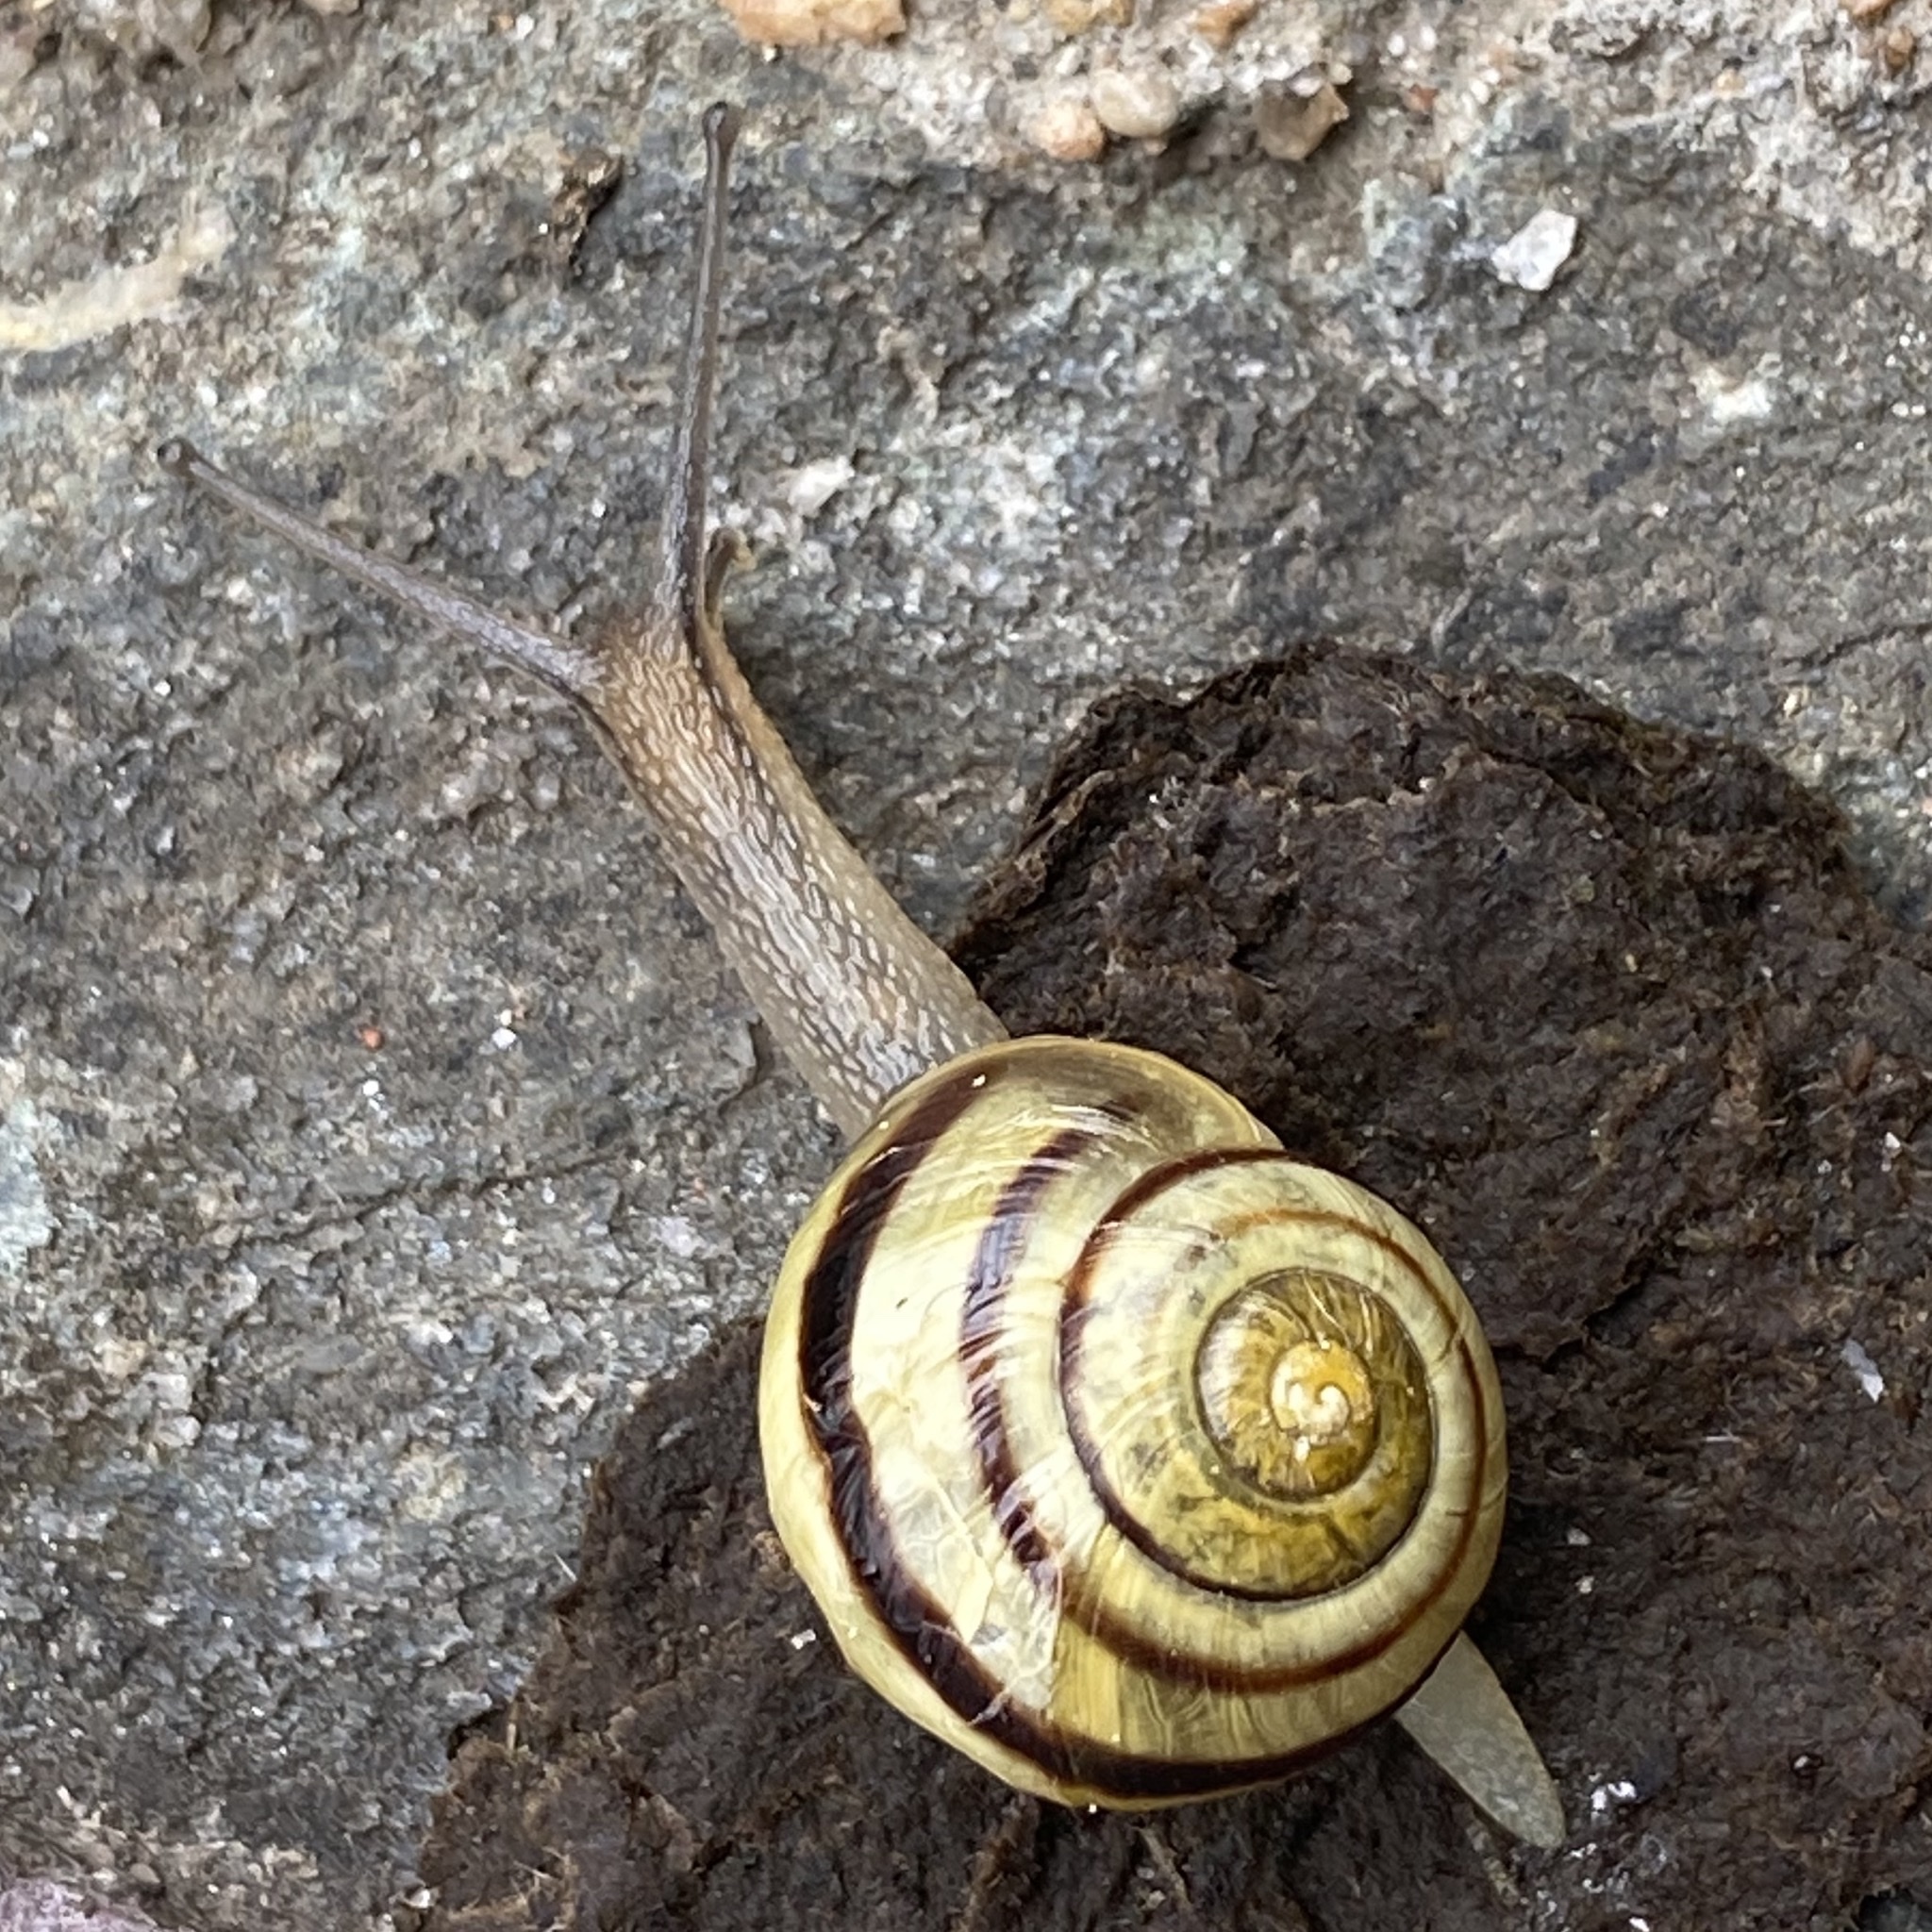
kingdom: Animalia
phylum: Mollusca
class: Gastropoda
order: Stylommatophora
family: Helicidae
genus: Cepaea
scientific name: Cepaea nemoralis
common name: Grovesnail
